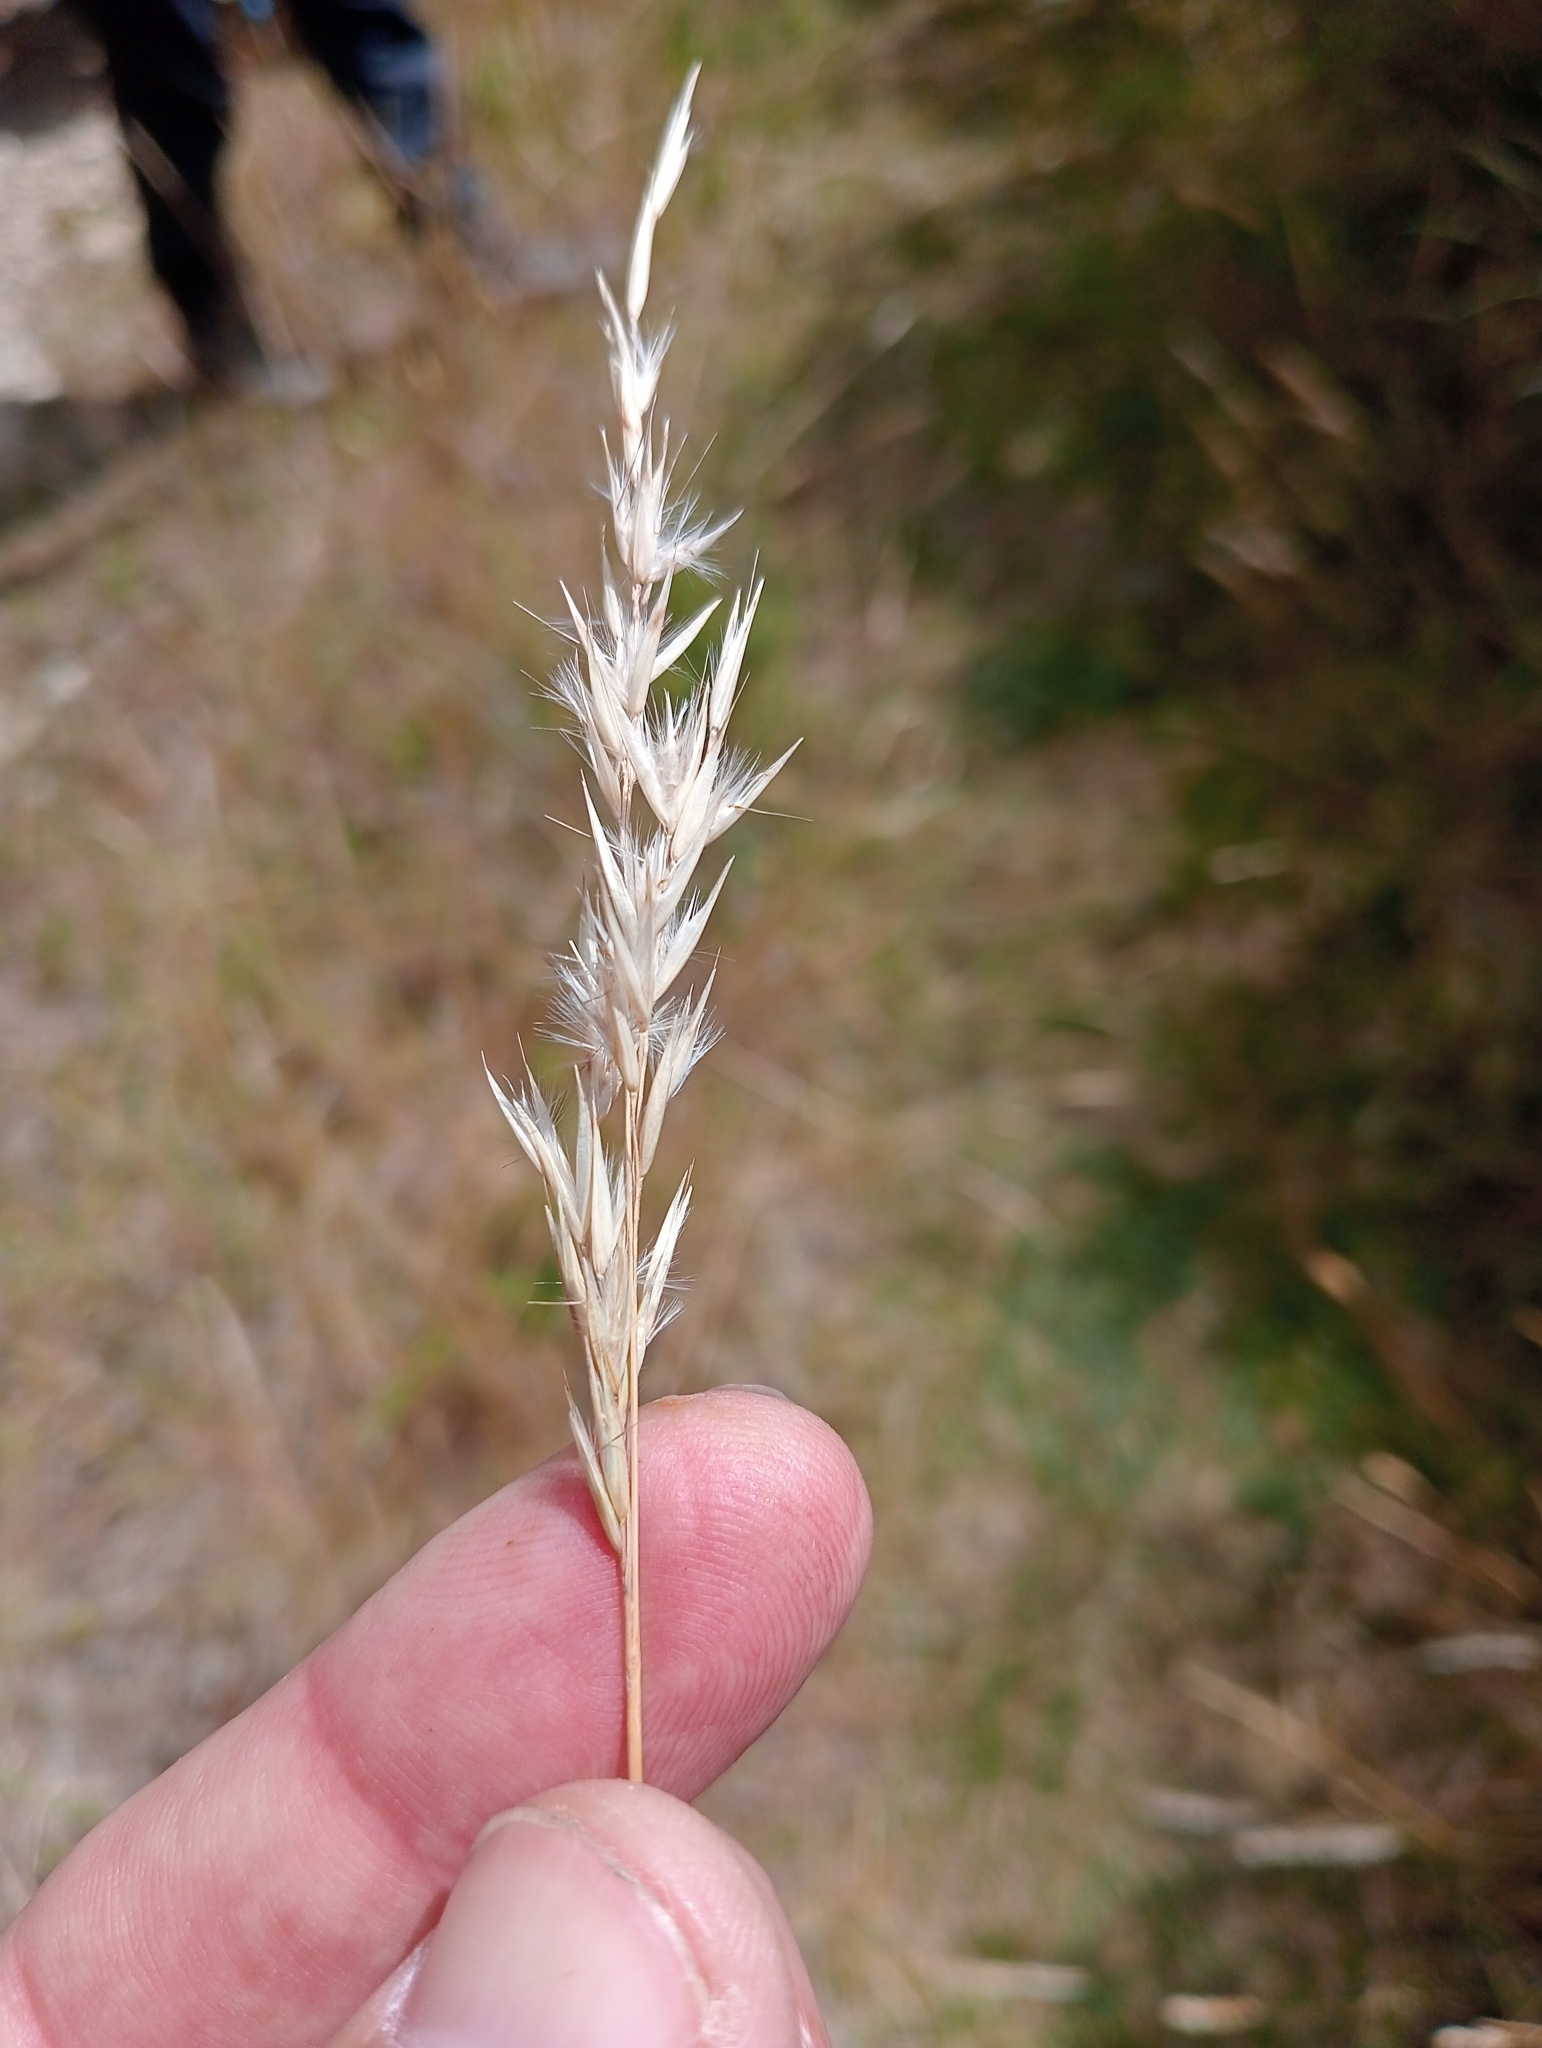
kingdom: Plantae
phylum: Tracheophyta
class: Liliopsida
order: Poales
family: Poaceae
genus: Rytidosperma
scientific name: Rytidosperma gracile
